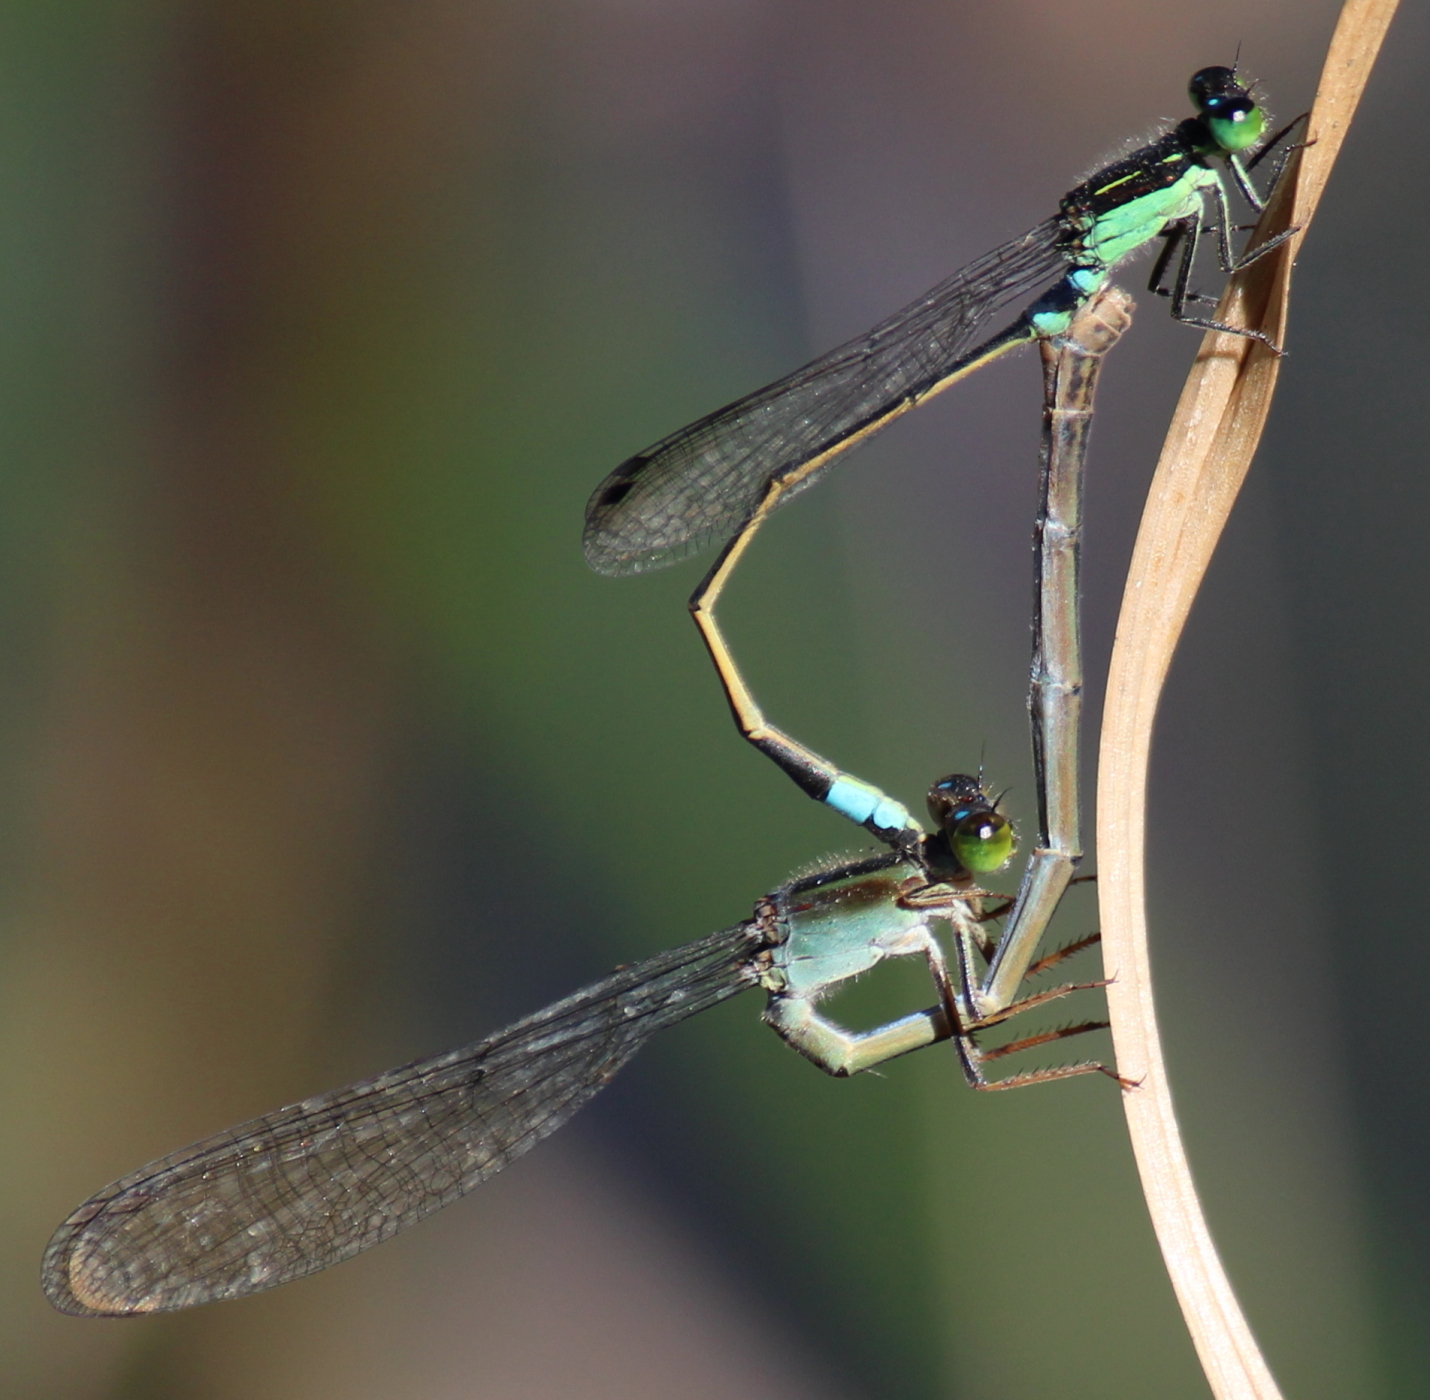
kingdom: Animalia
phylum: Arthropoda
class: Insecta
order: Odonata
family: Coenagrionidae
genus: Ischnura
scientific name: Ischnura senegalensis
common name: Tropical bluetail
